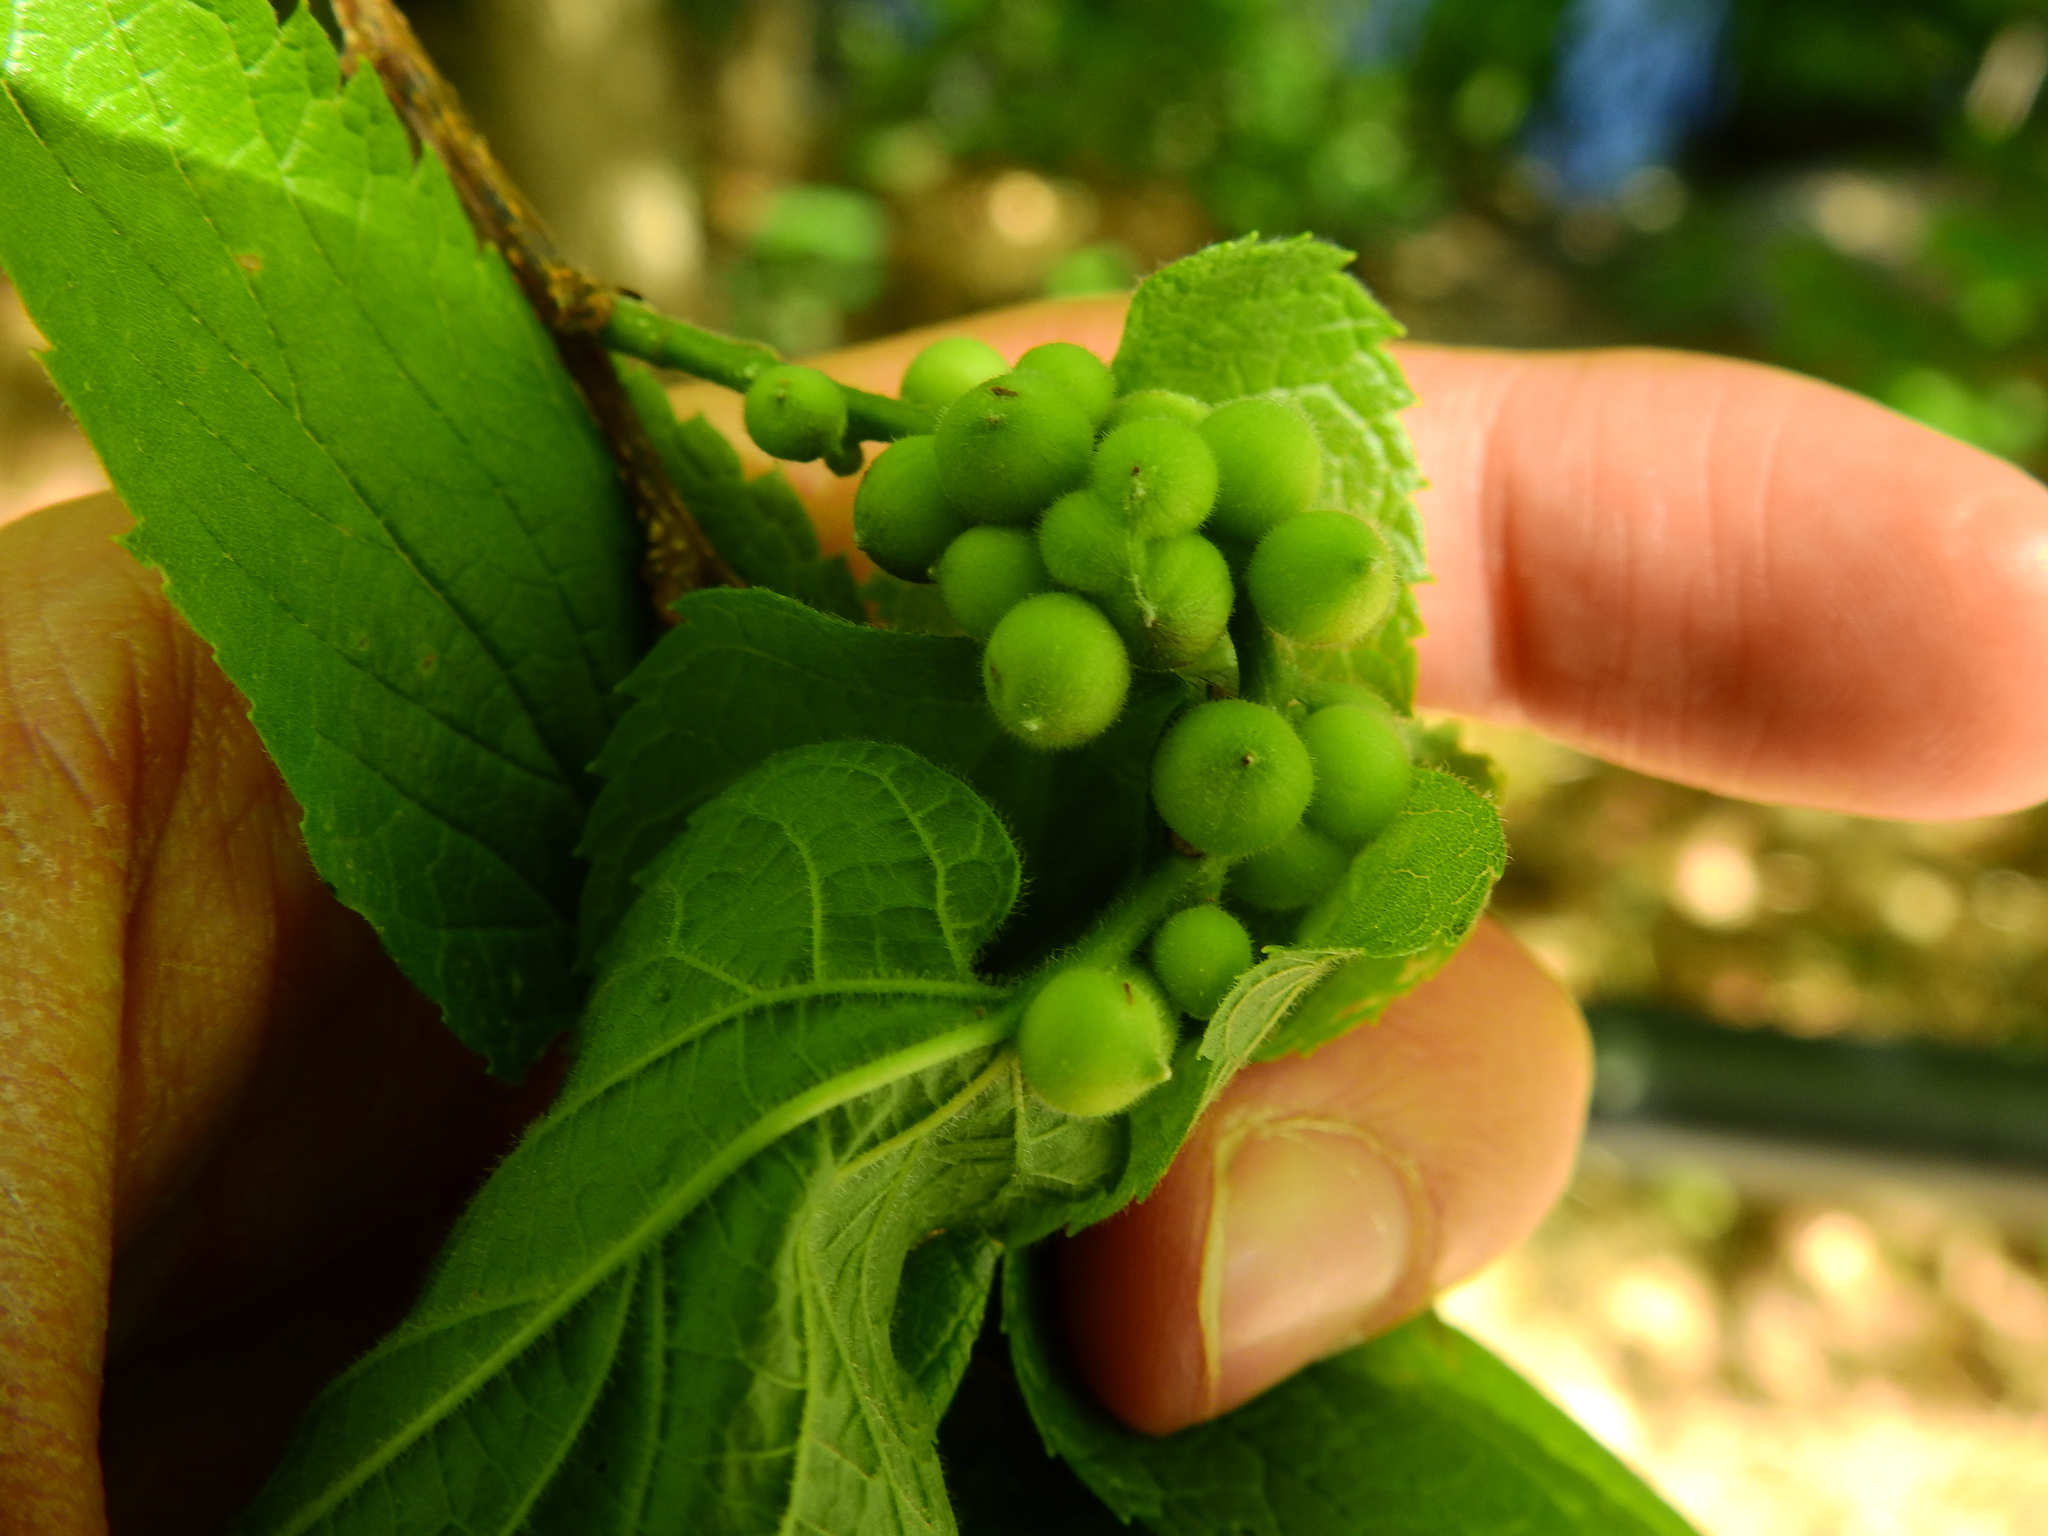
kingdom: Animalia
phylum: Arthropoda
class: Insecta
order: Diptera
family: Cecidomyiidae
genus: Celticecis
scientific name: Celticecis oviformis
